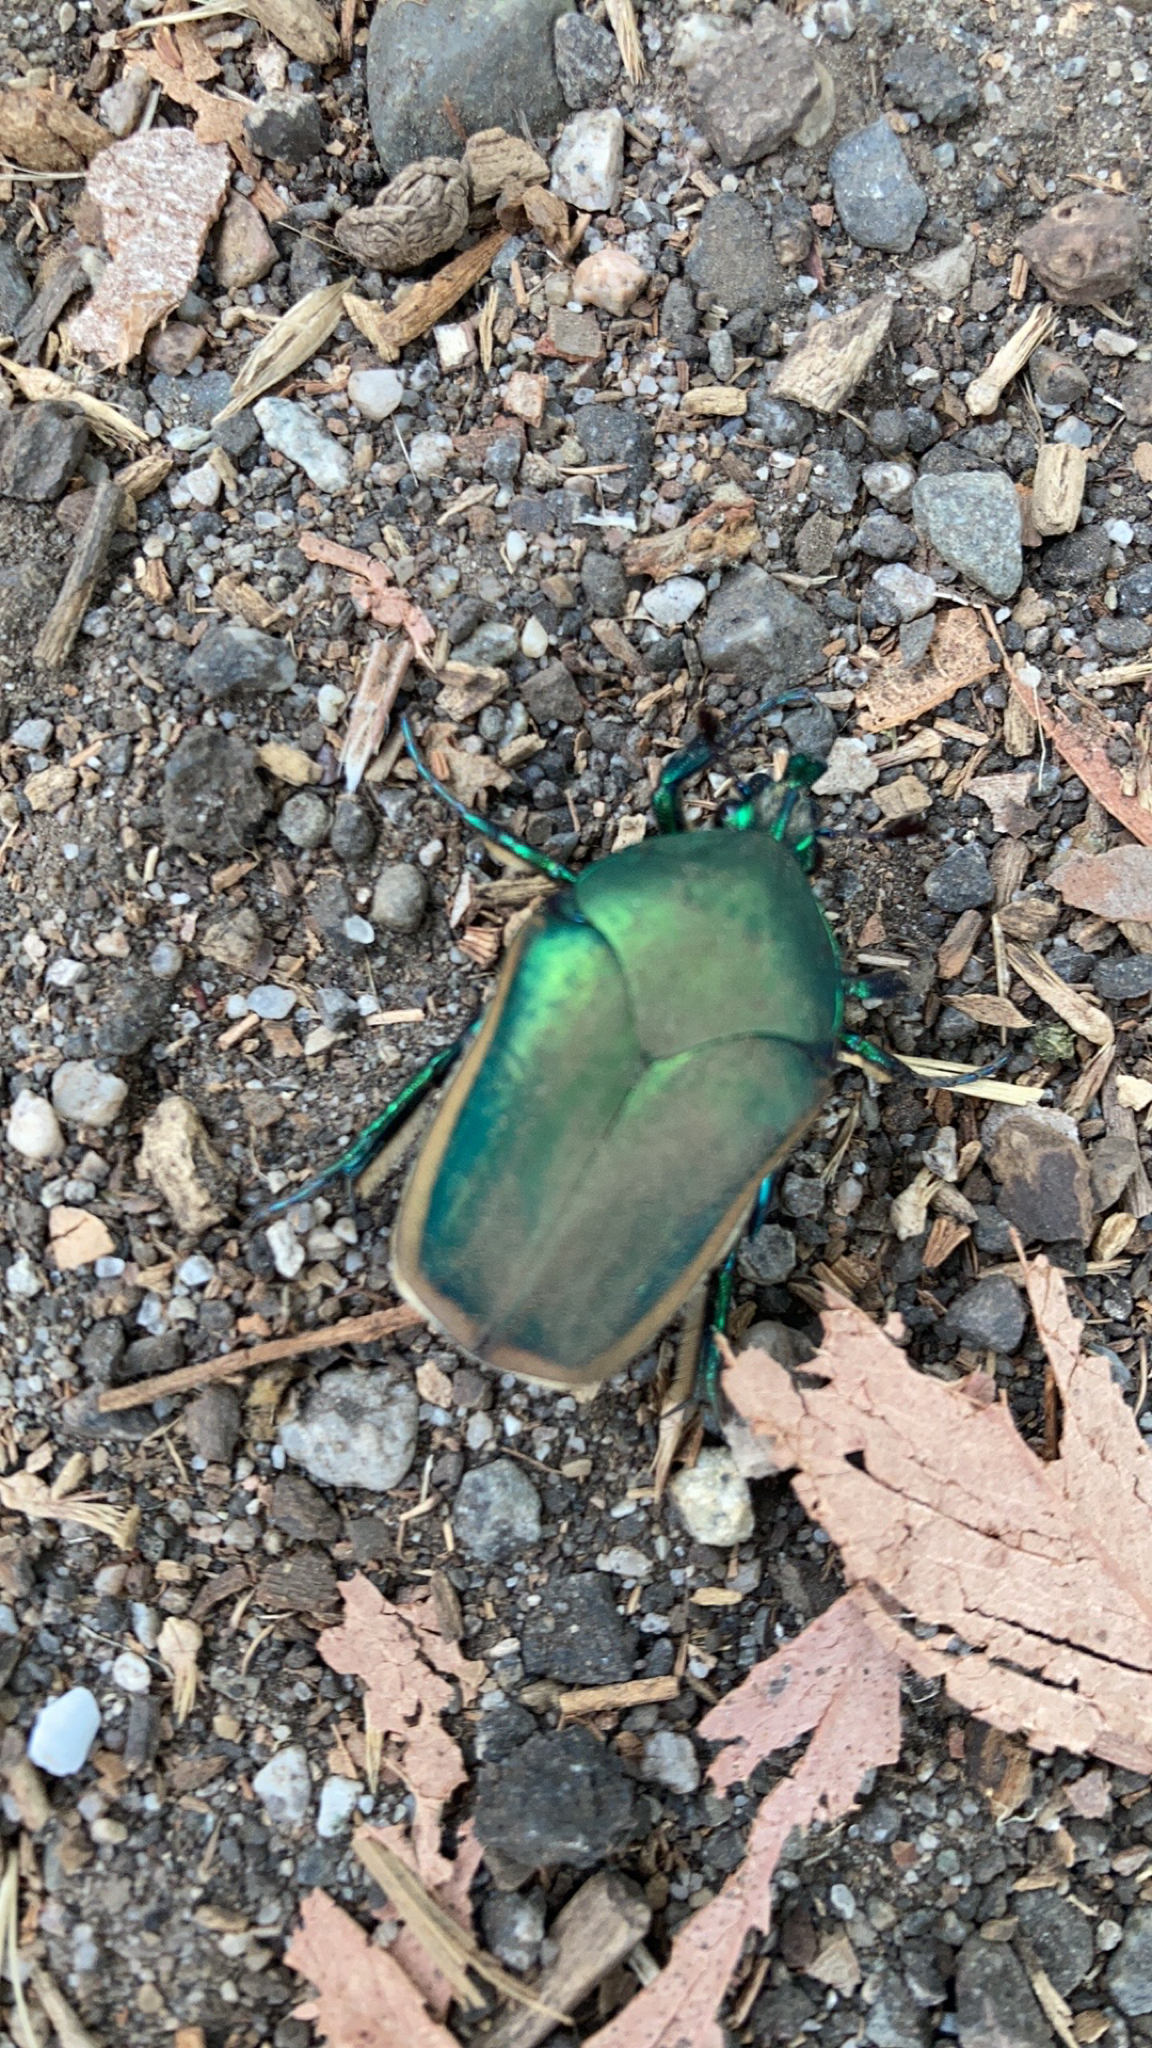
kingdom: Animalia
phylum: Arthropoda
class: Insecta
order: Coleoptera
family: Scarabaeidae
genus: Cotinis
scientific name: Cotinis mutabilis
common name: Figeater beetle
